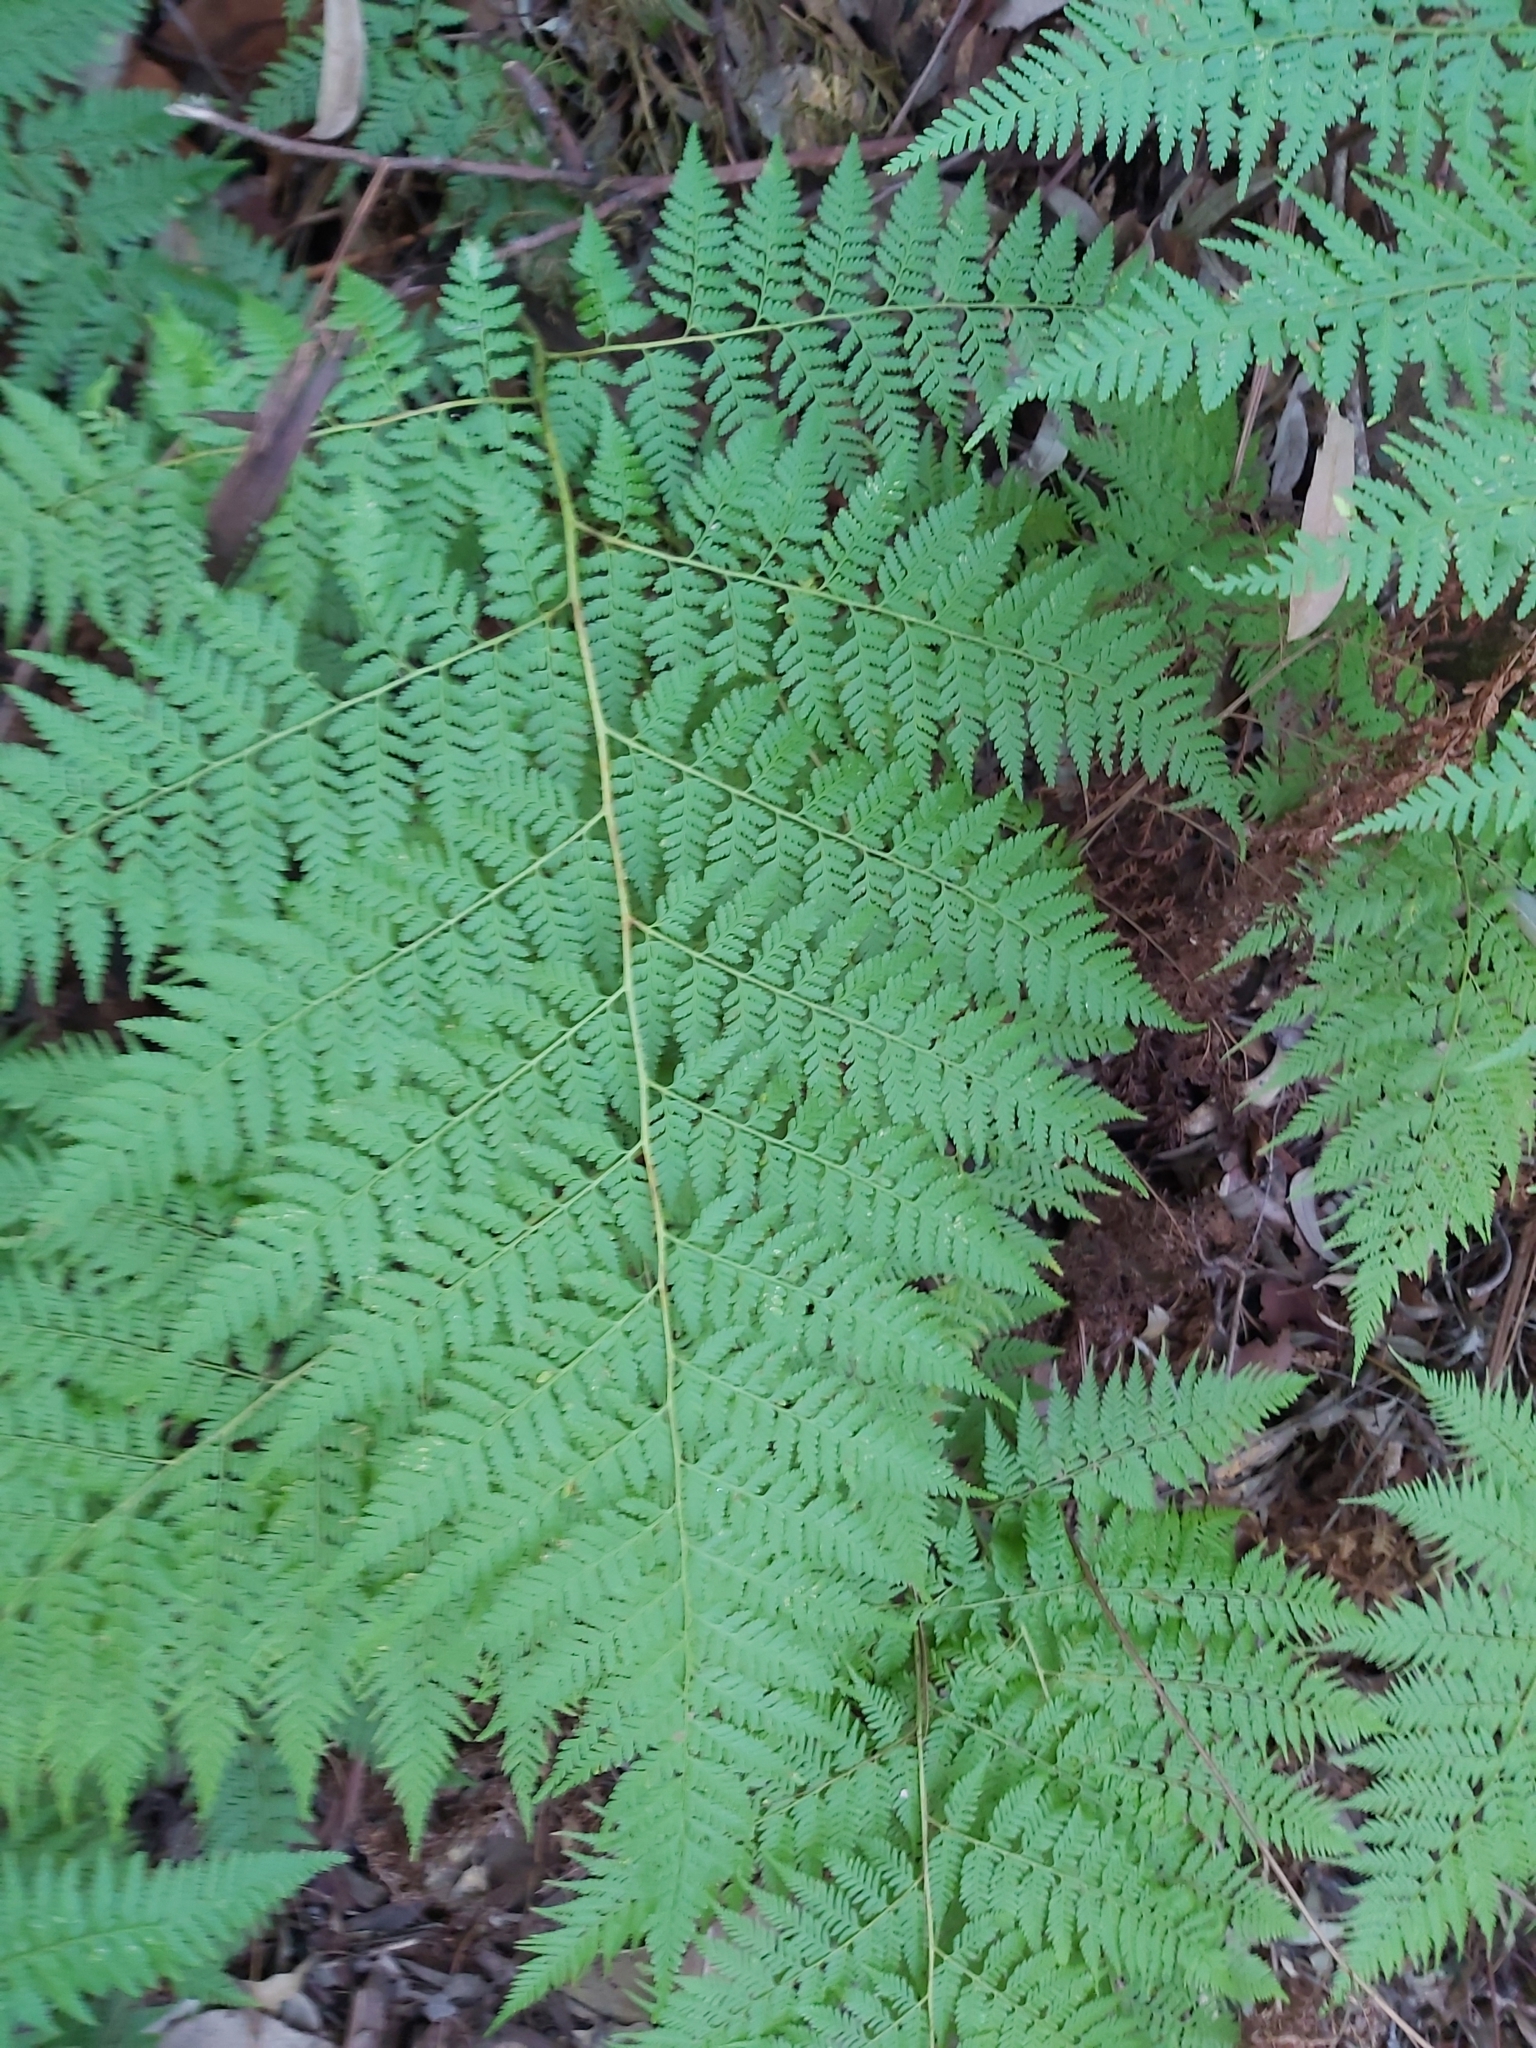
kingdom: Plantae
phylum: Tracheophyta
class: Polypodiopsida
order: Cyatheales
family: Dicksoniaceae
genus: Calochlaena
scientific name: Calochlaena dubia
